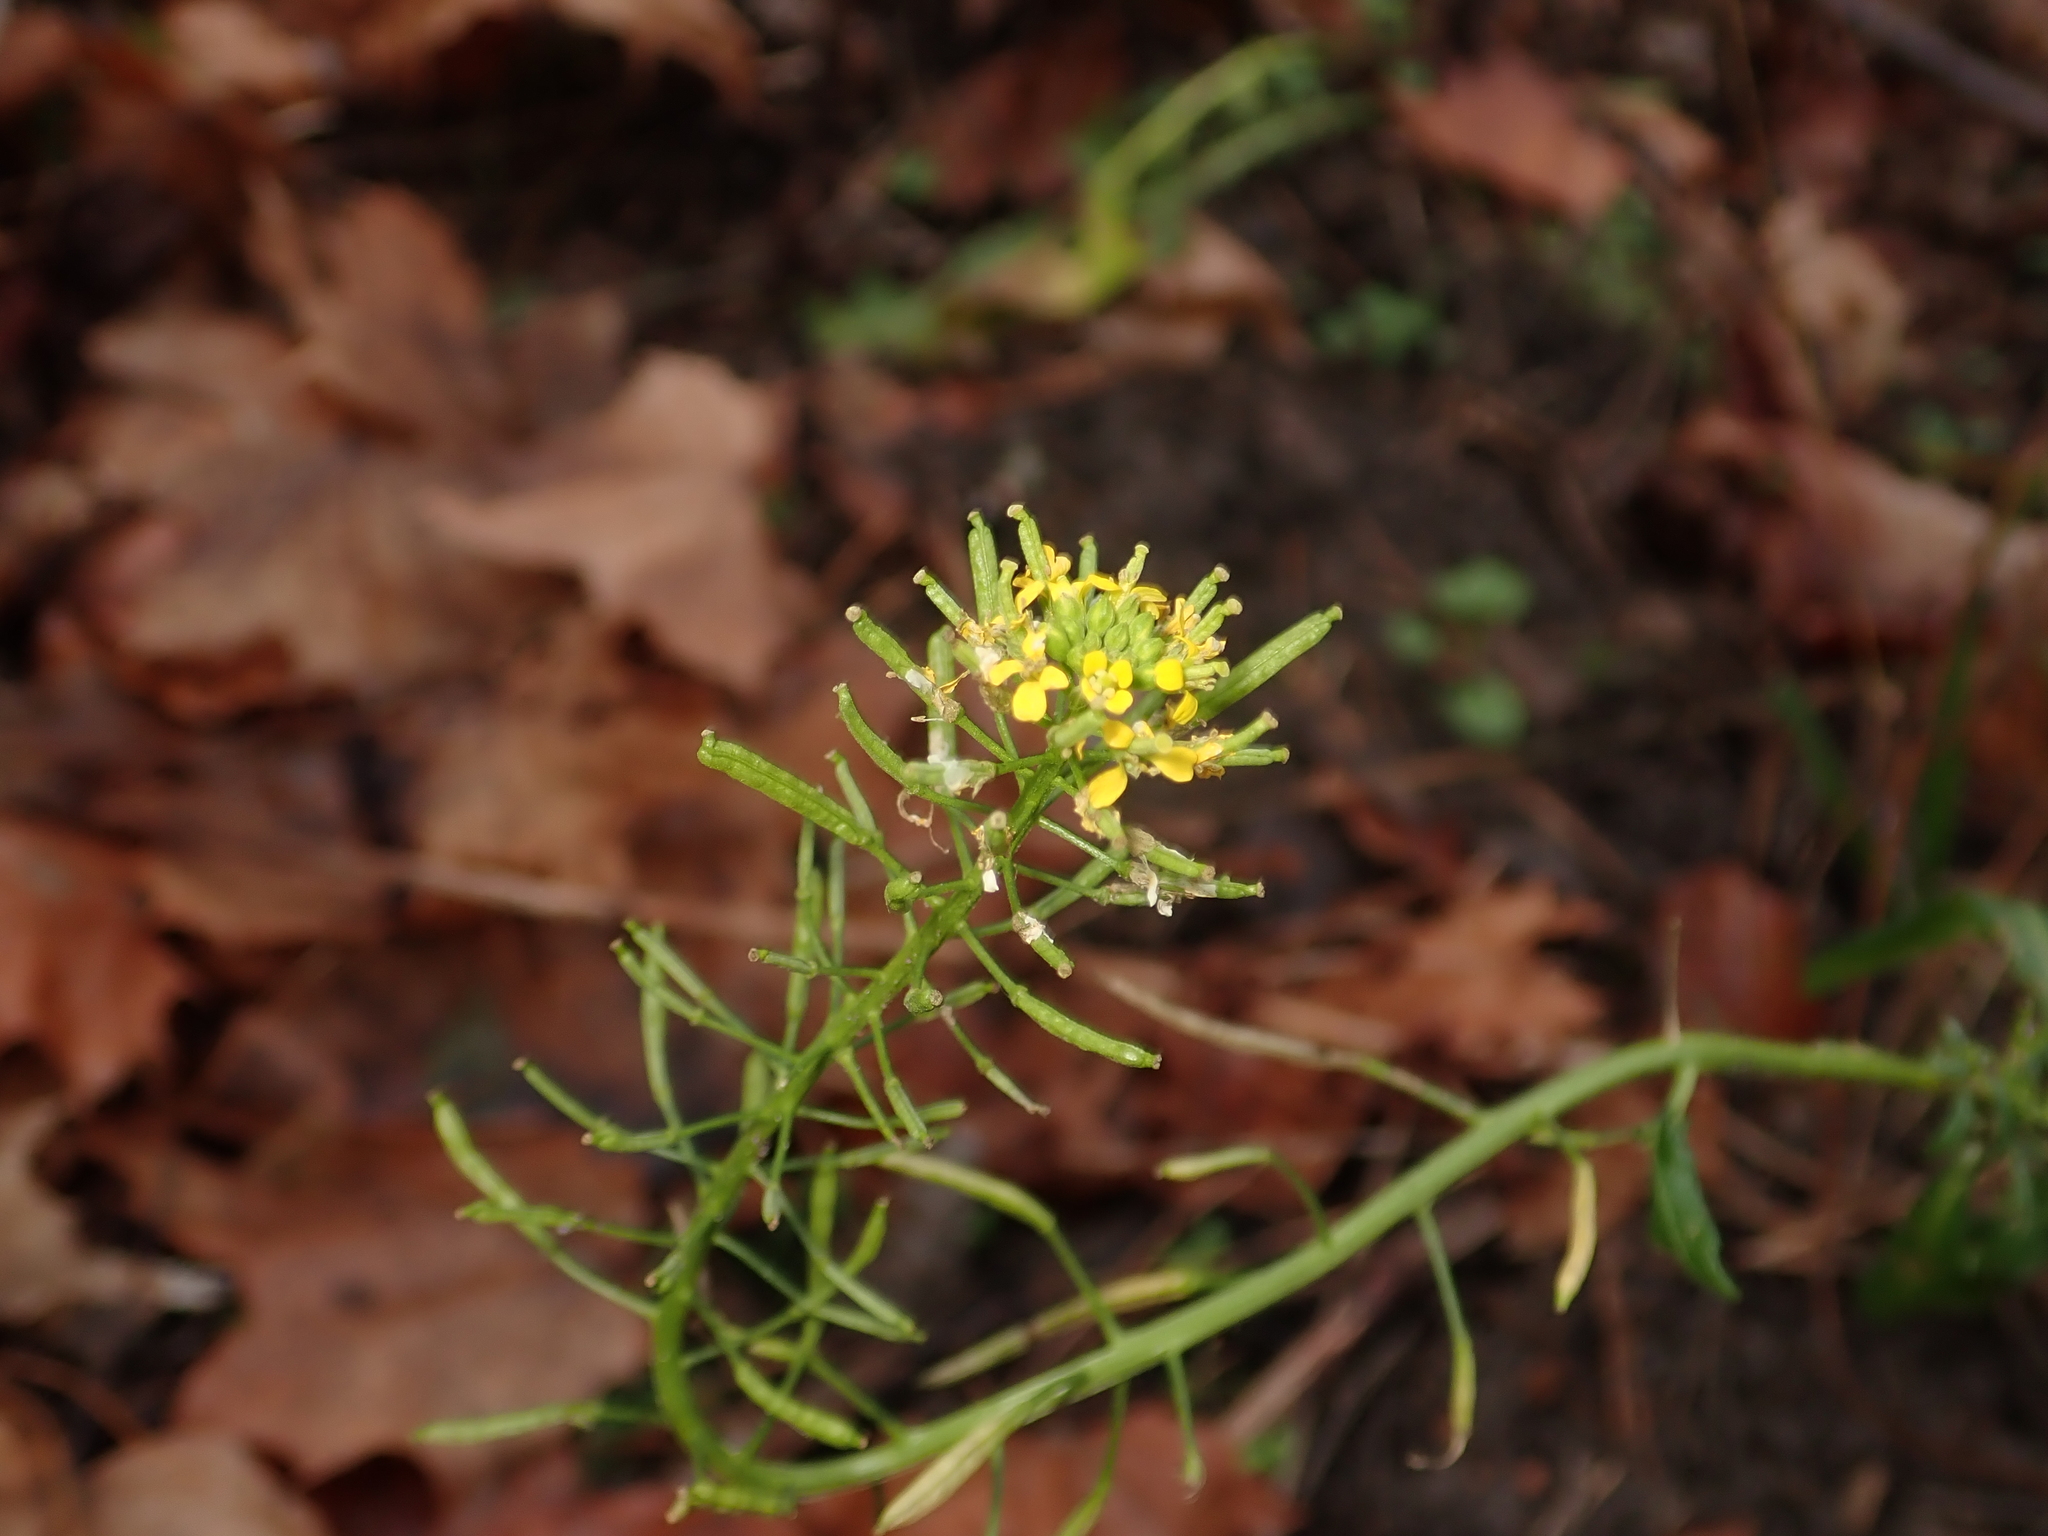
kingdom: Plantae
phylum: Tracheophyta
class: Magnoliopsida
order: Brassicales
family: Brassicaceae
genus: Erysimum
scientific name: Erysimum cheiranthoides
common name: Treacle mustard
